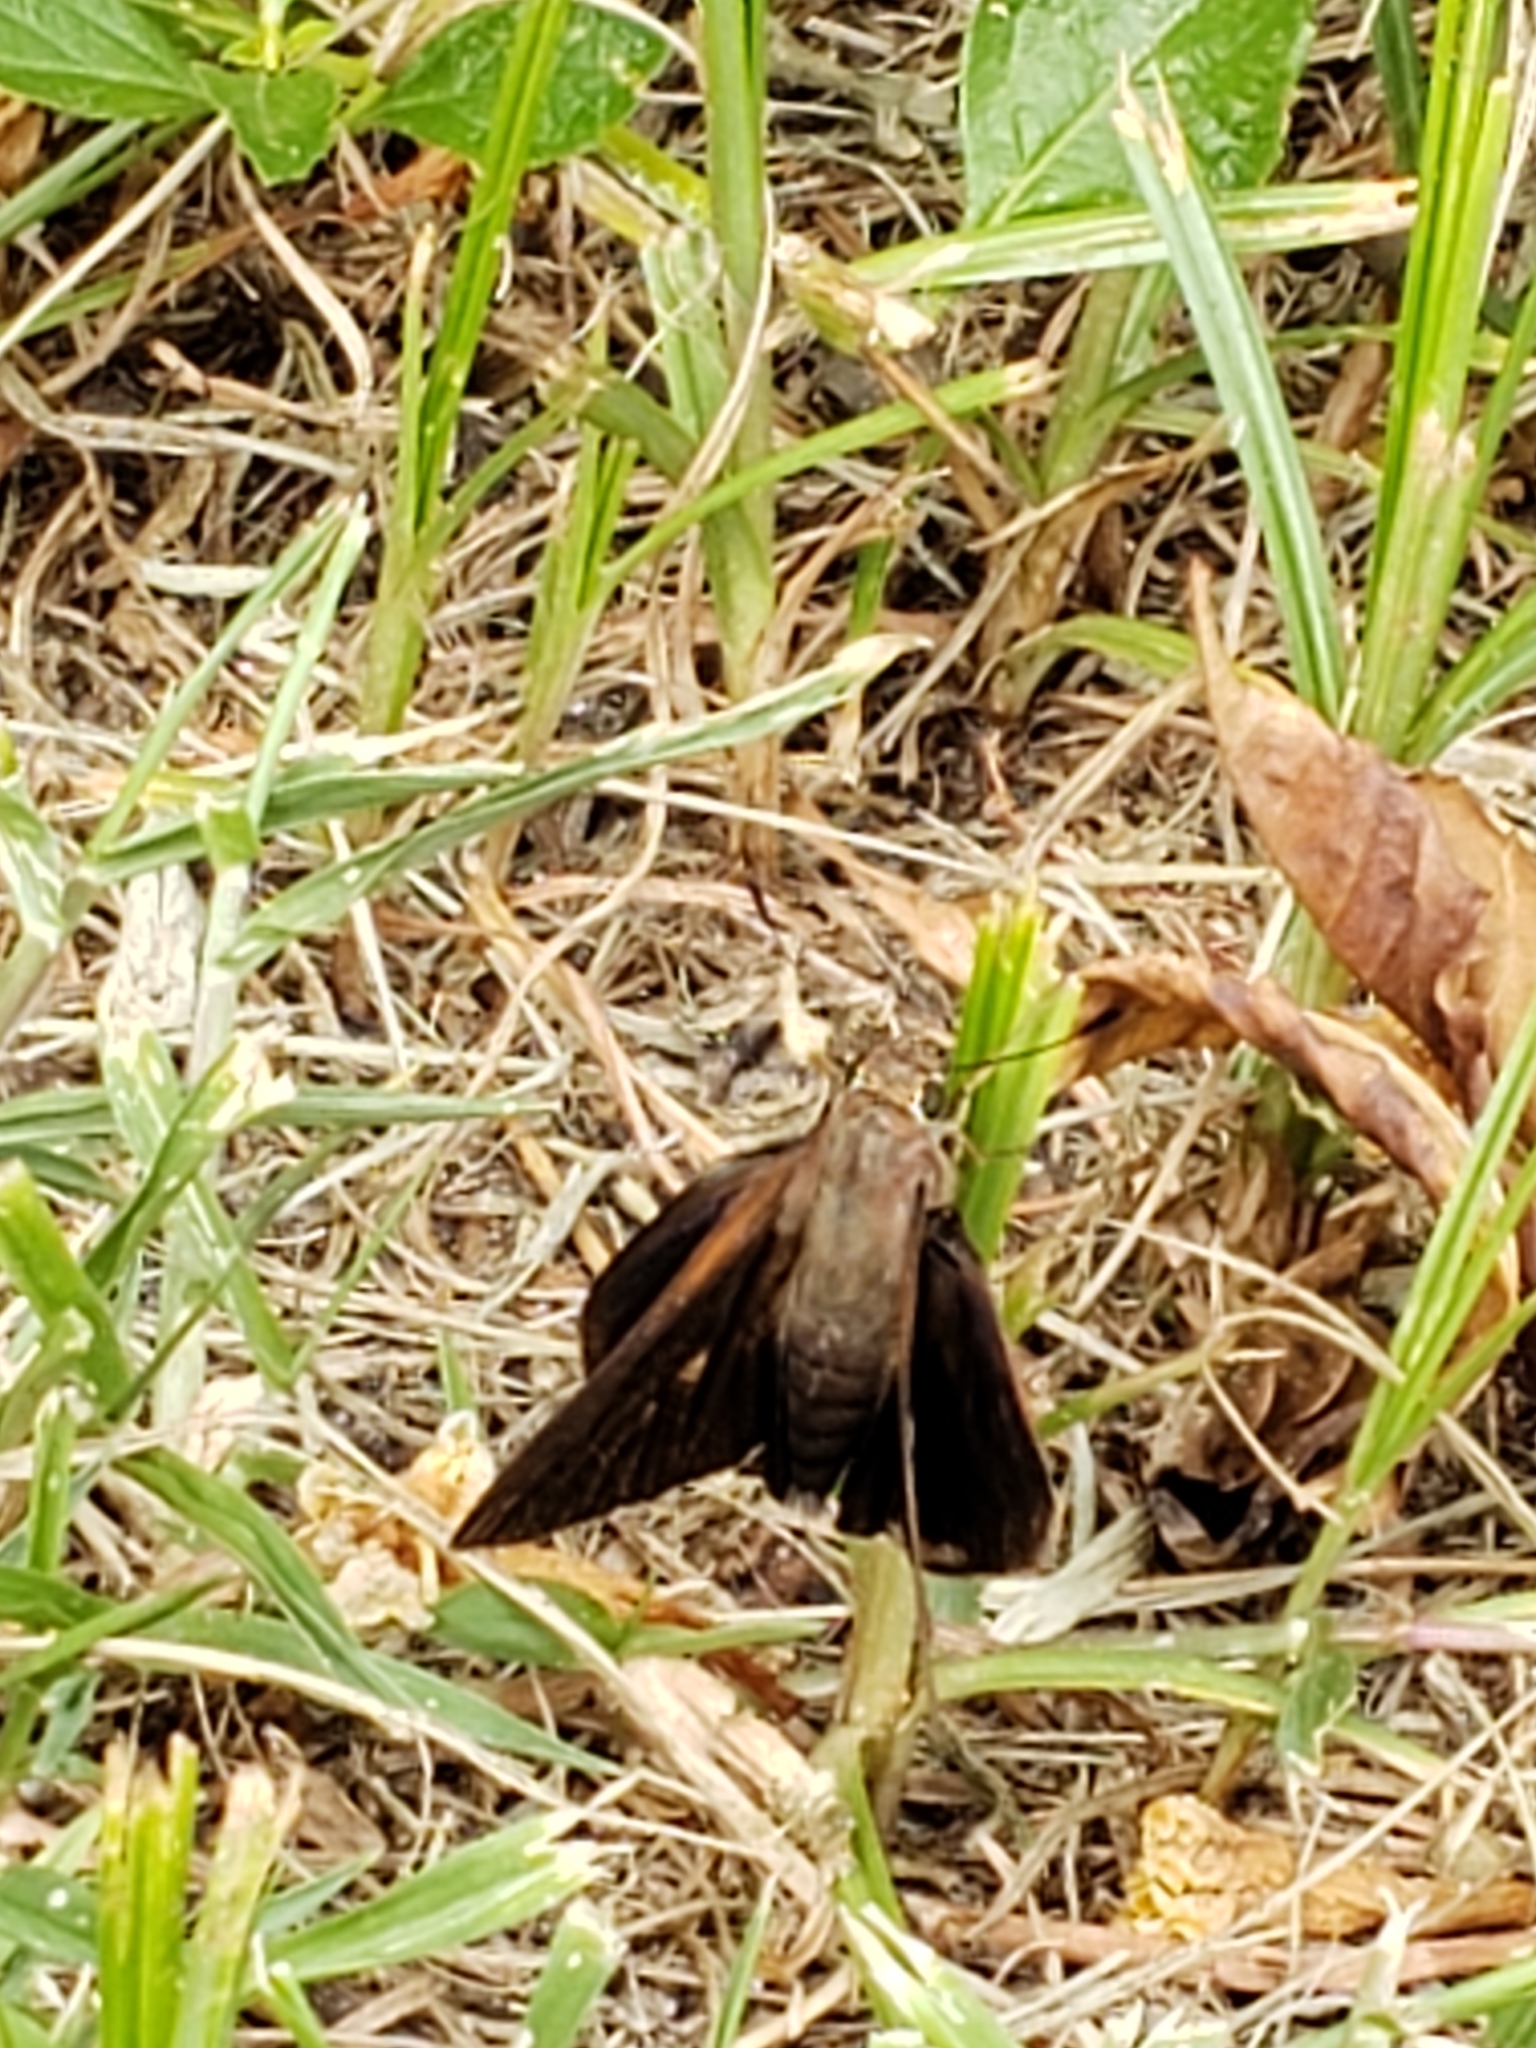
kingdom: Animalia
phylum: Arthropoda
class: Insecta
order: Lepidoptera
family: Hesperiidae
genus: Asbolis
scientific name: Asbolis capucinus
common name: Monk skipper
